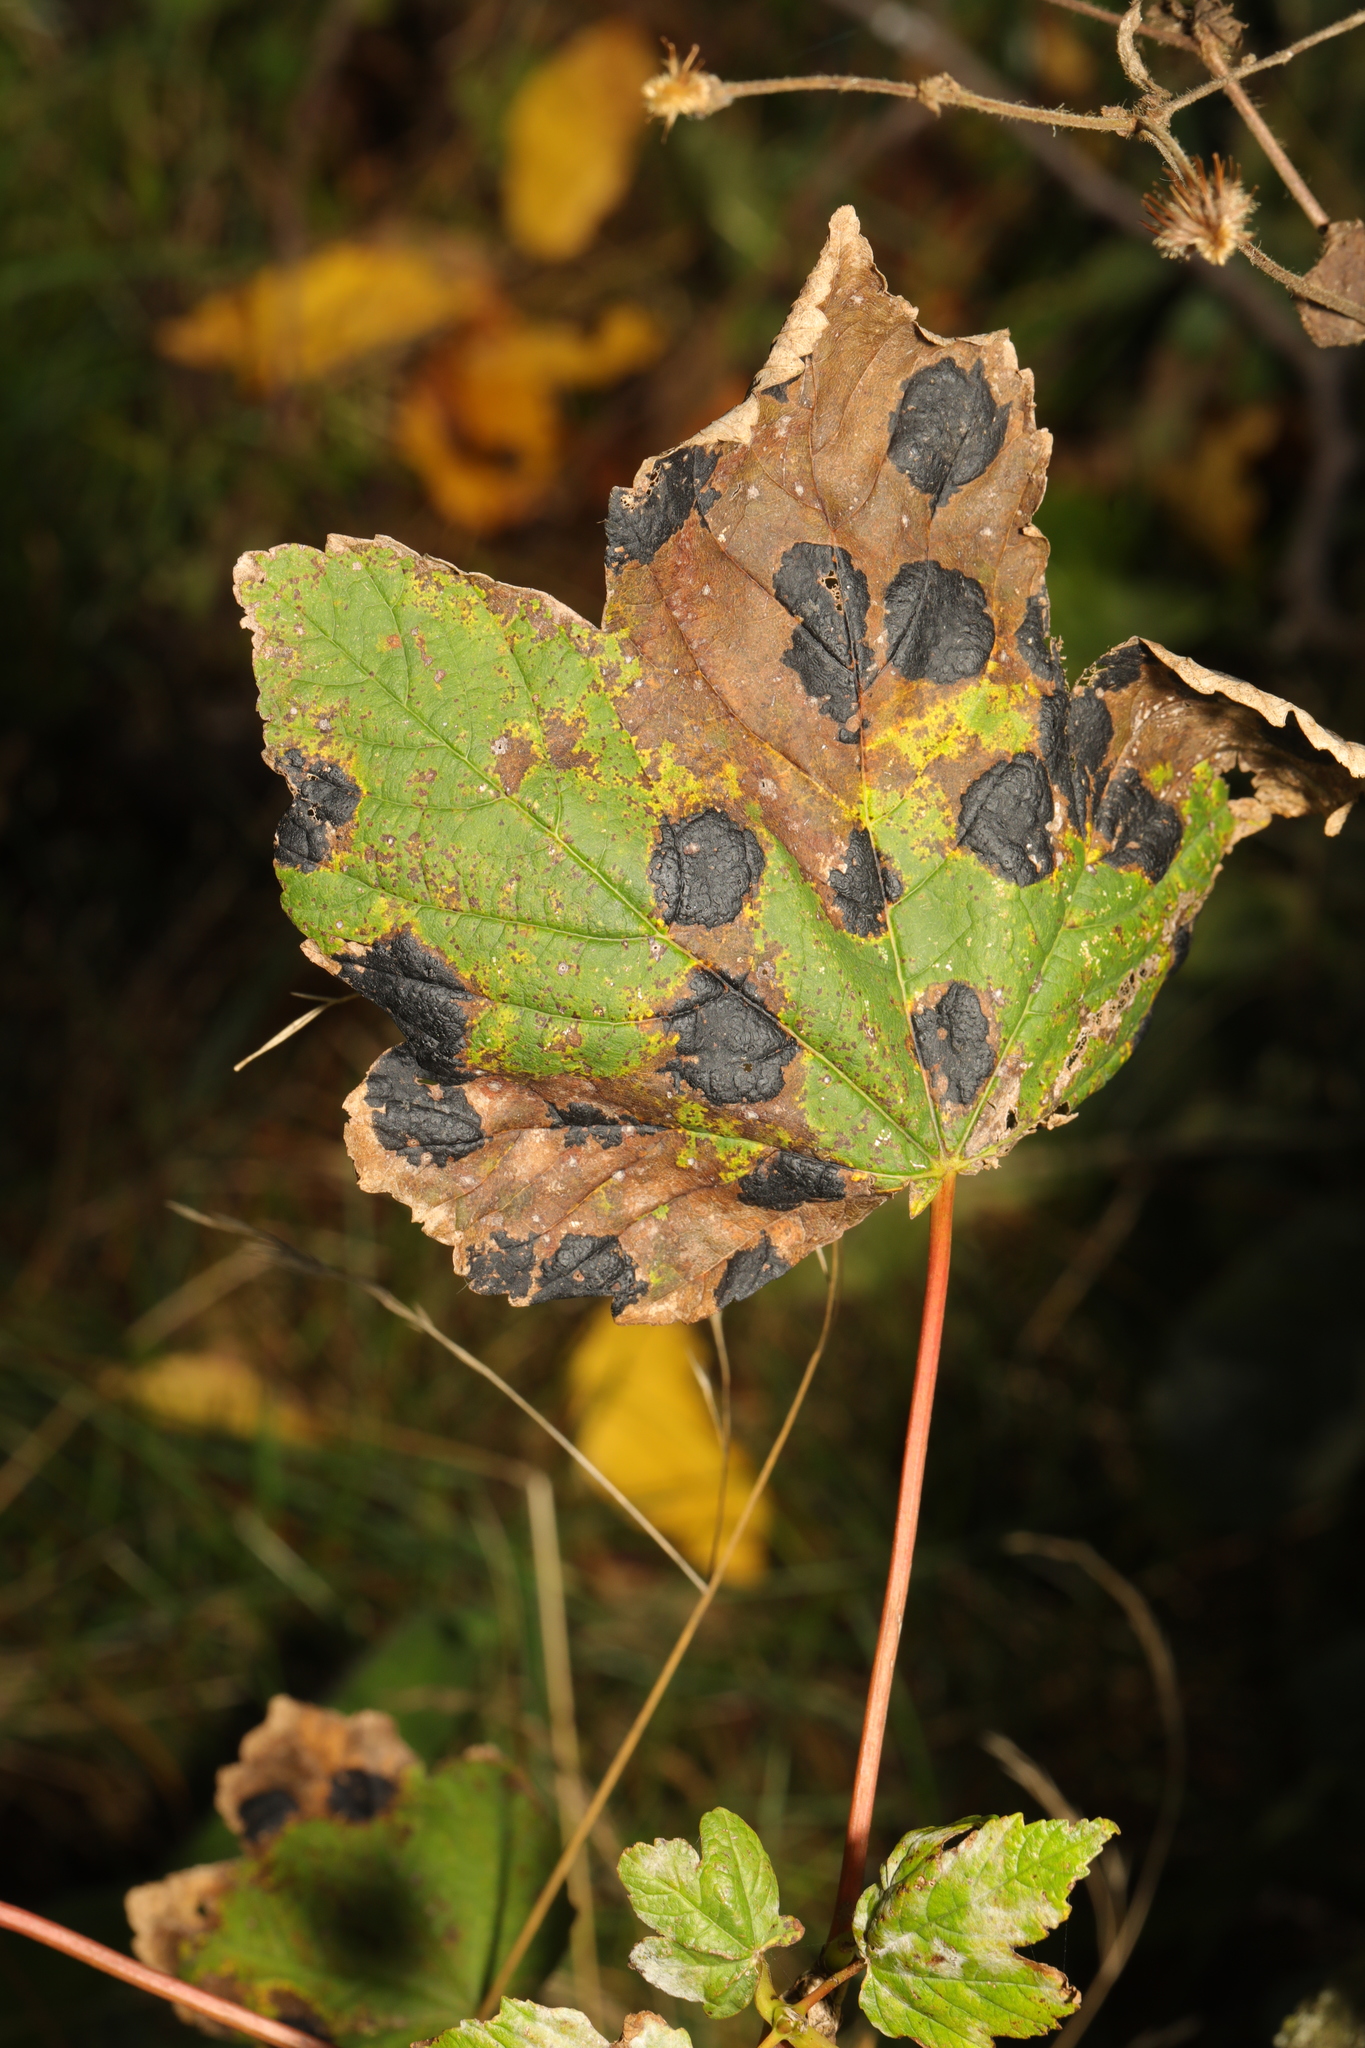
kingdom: Plantae
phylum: Tracheophyta
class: Magnoliopsida
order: Sapindales
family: Sapindaceae
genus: Acer
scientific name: Acer pseudoplatanus
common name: Sycamore
